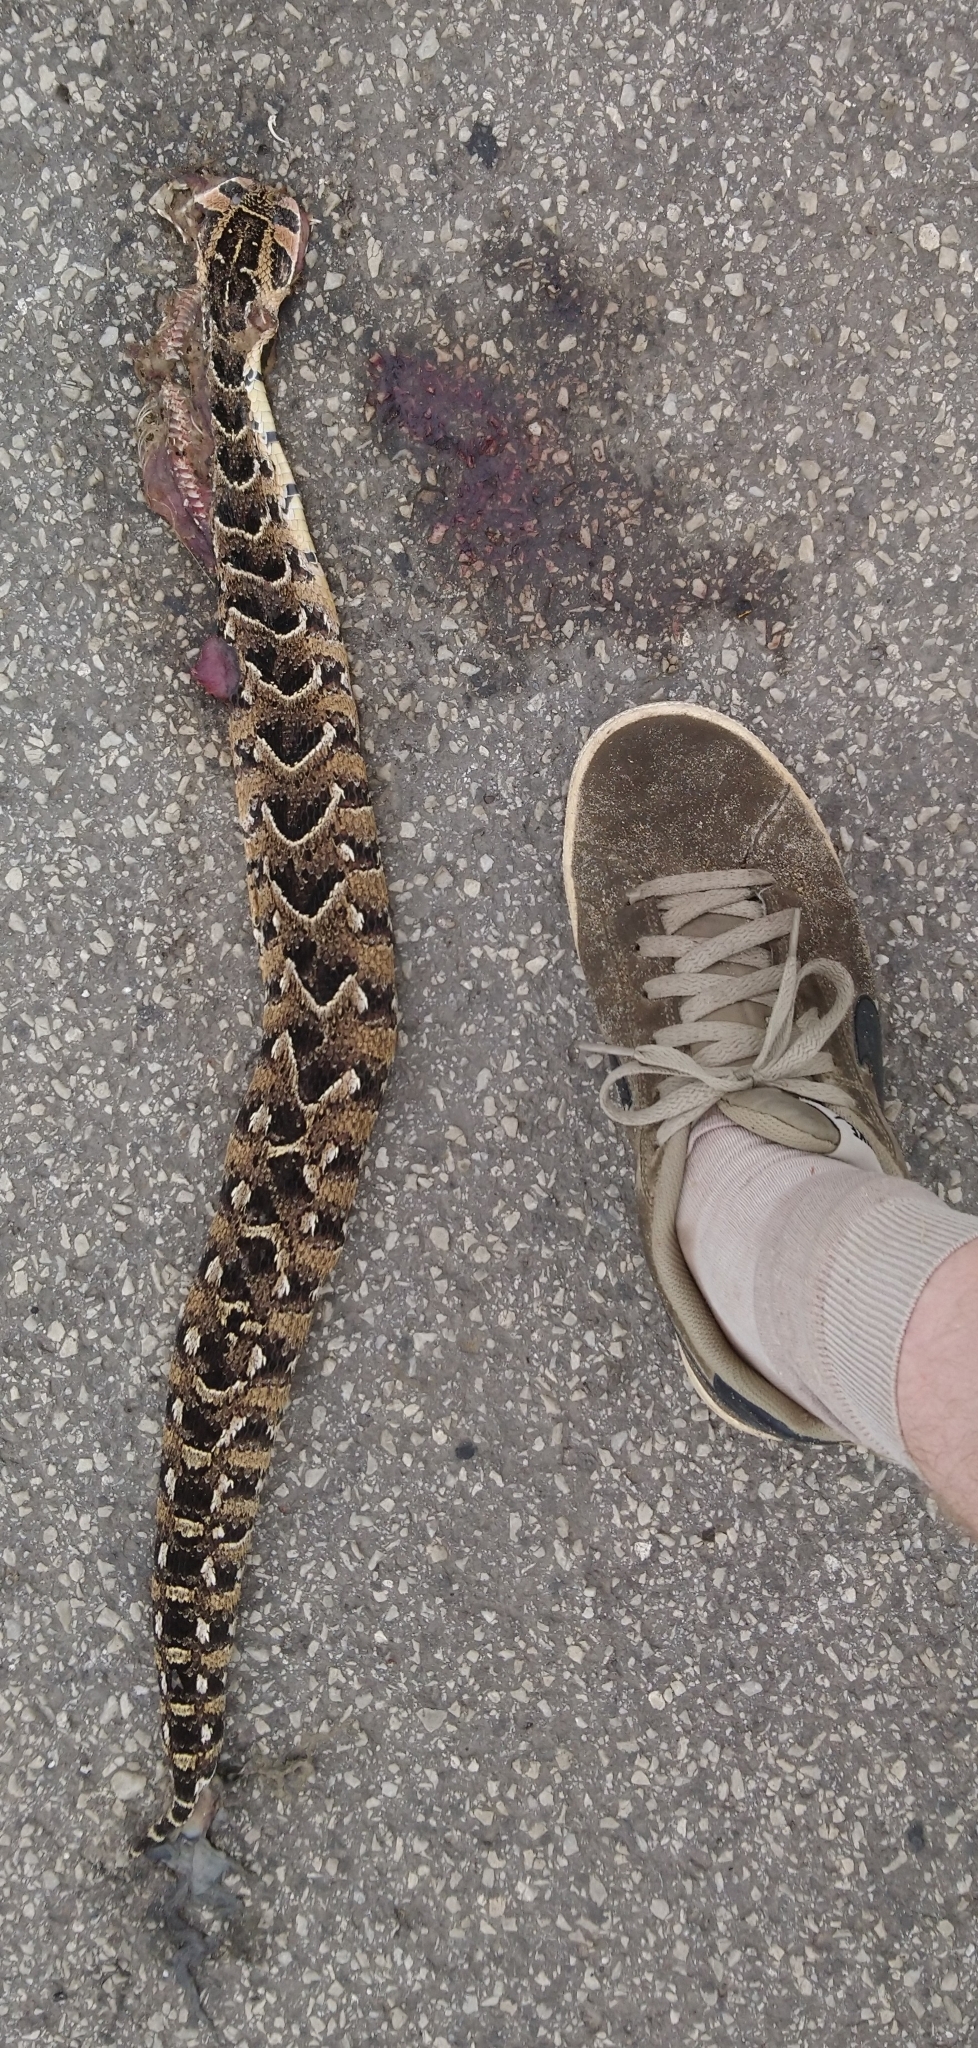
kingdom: Animalia
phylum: Chordata
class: Squamata
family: Viperidae
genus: Bitis
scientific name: Bitis arietans
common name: Puff adder
